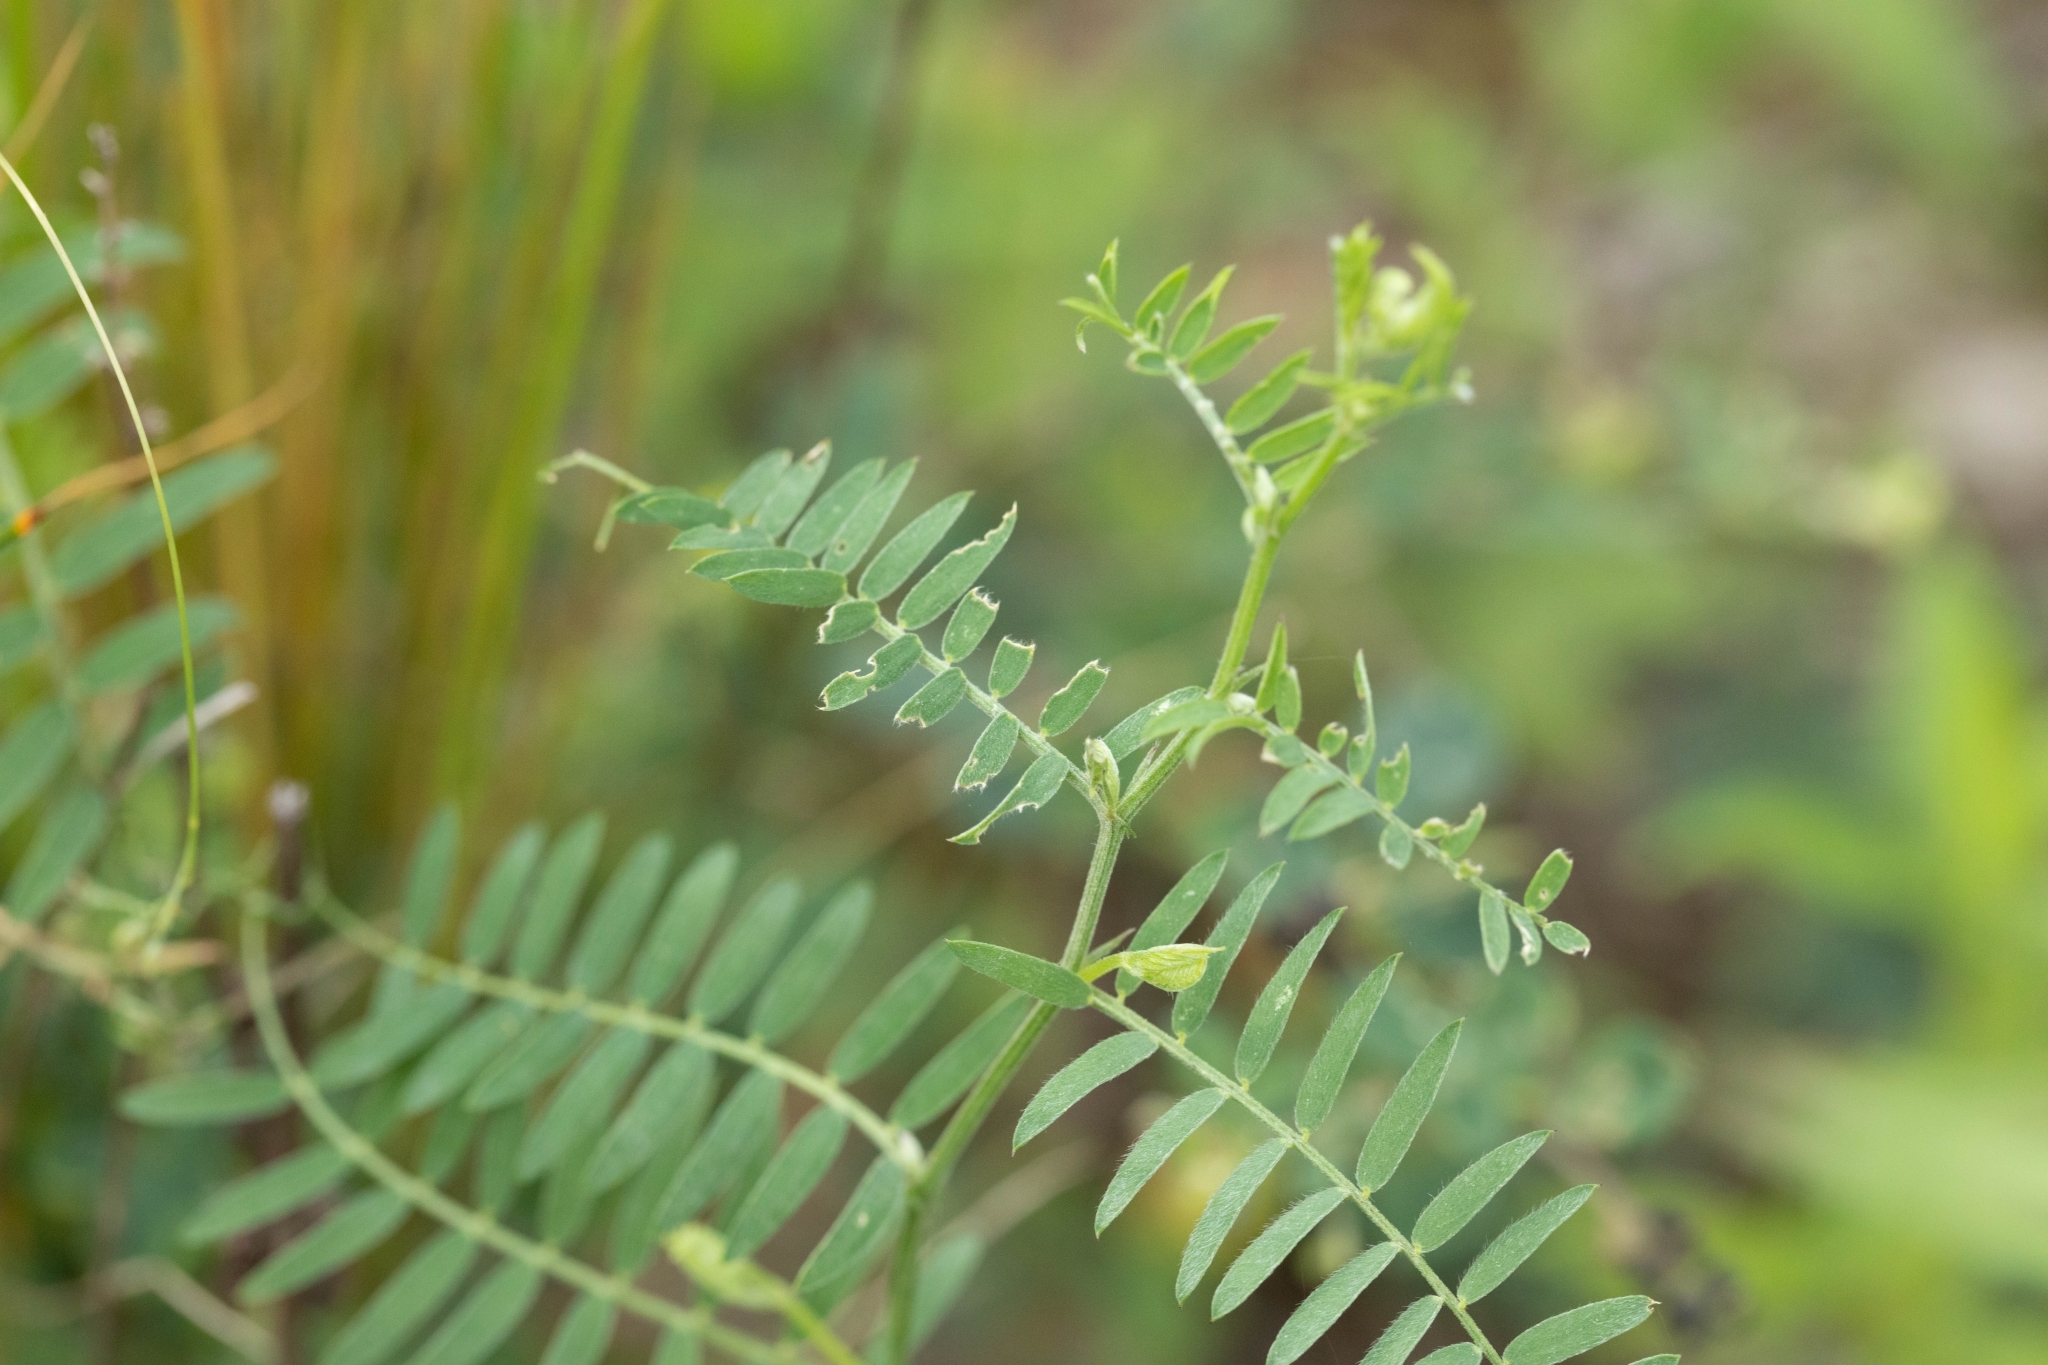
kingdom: Plantae
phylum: Tracheophyta
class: Magnoliopsida
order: Fabales
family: Fabaceae
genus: Vicia
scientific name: Vicia cracca
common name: Bird vetch
